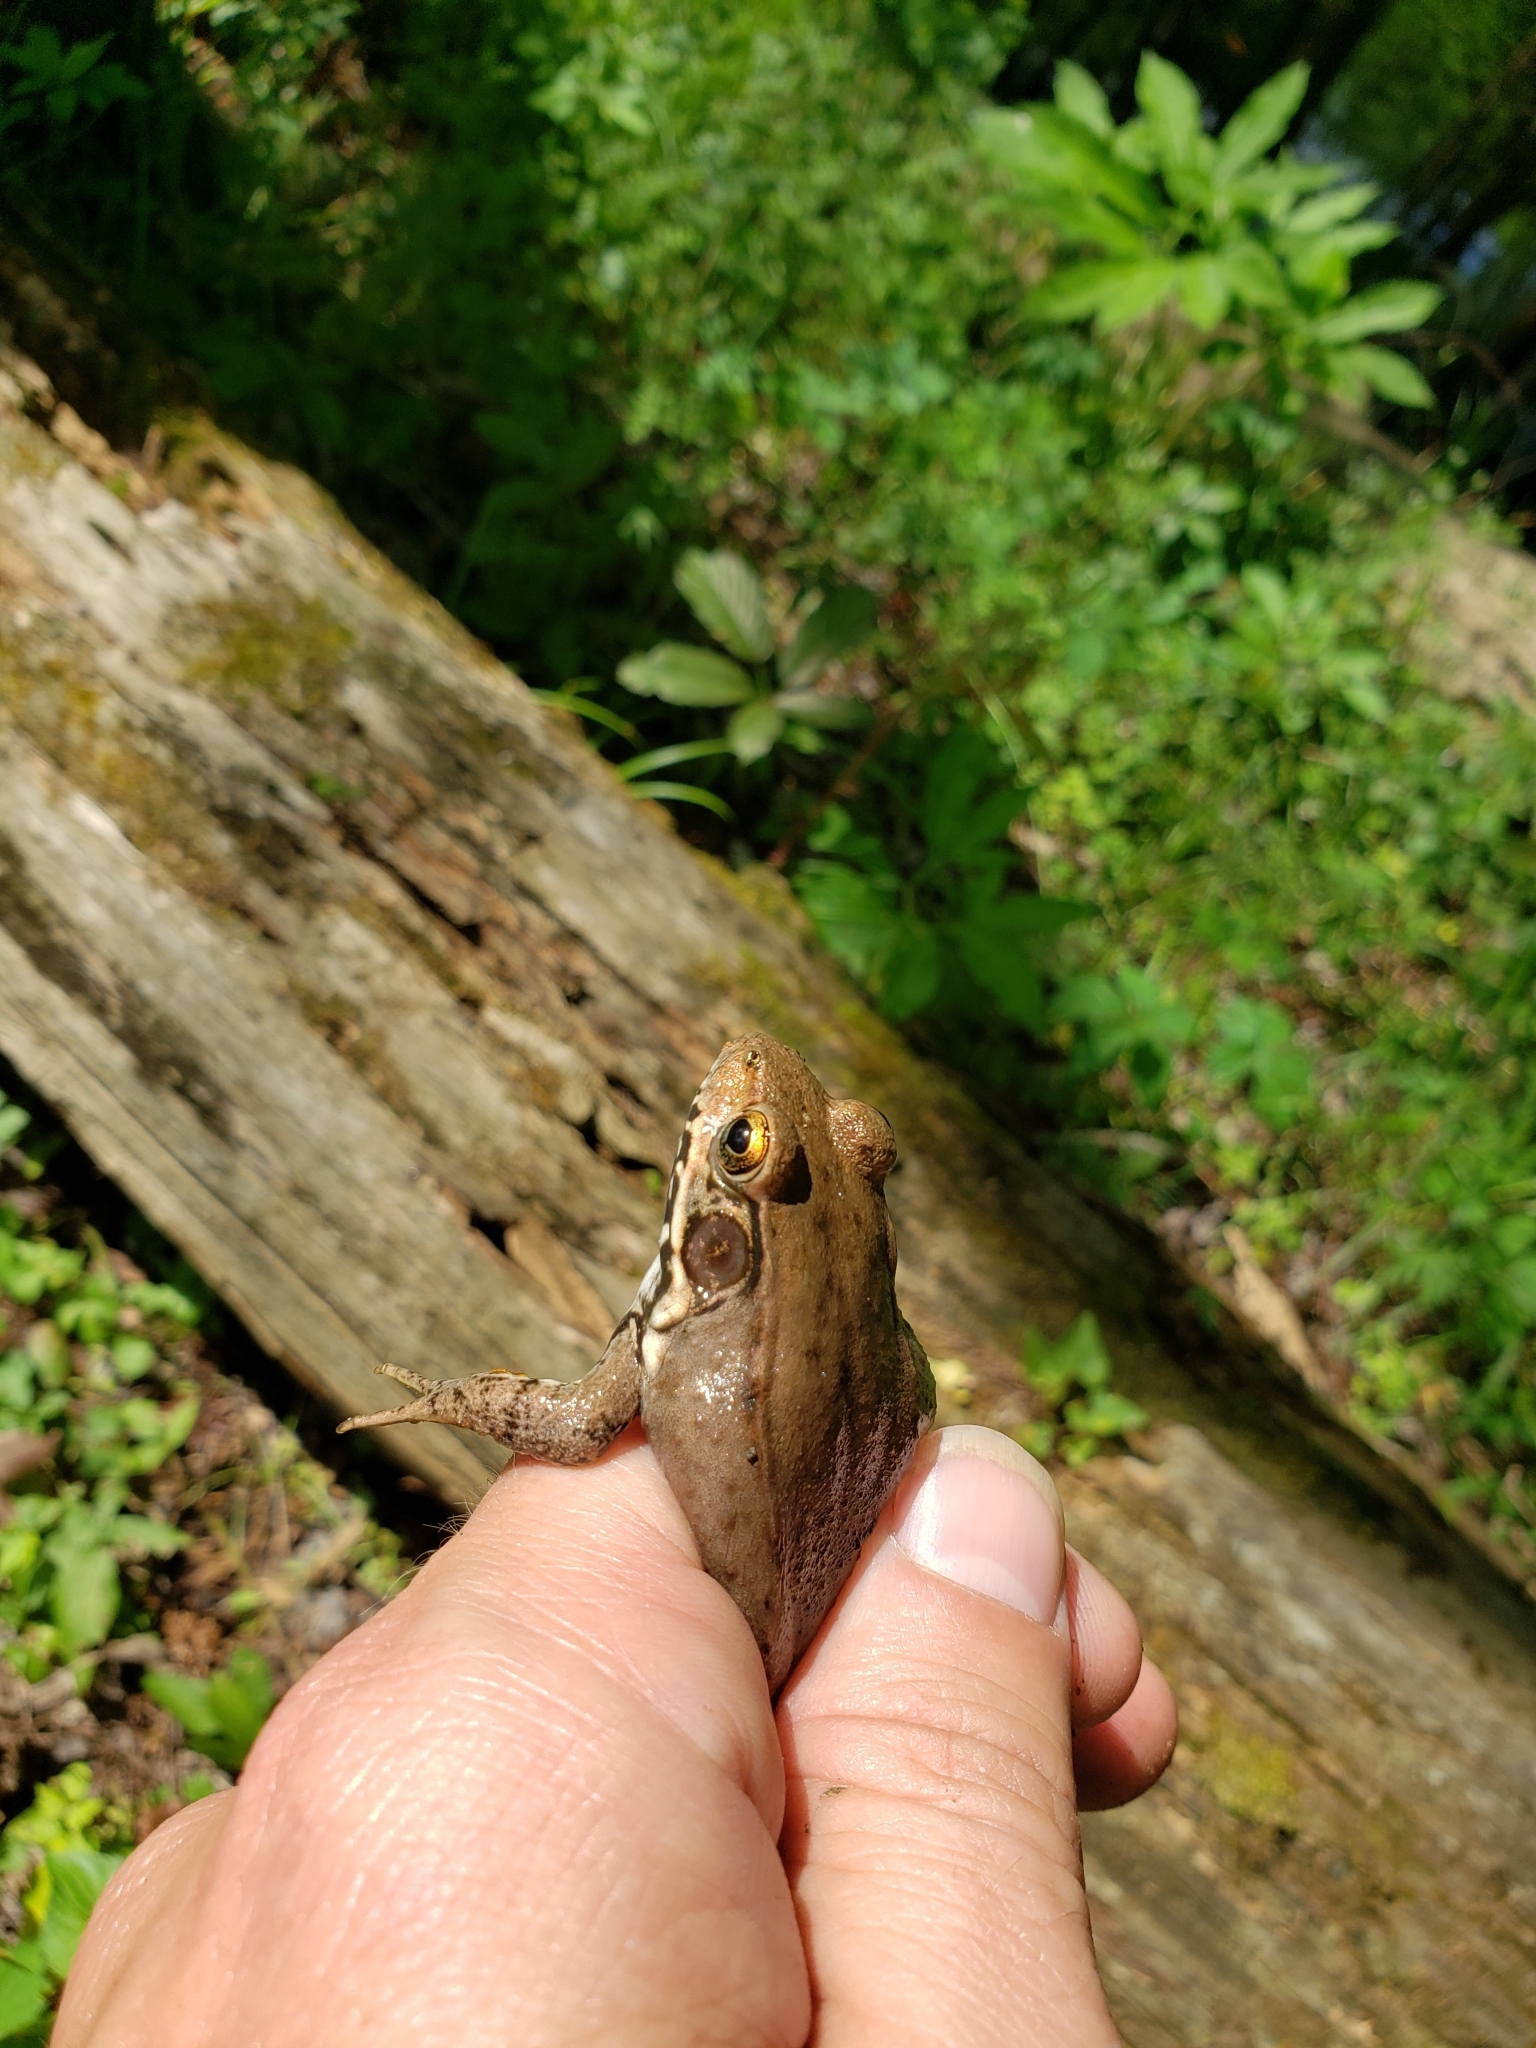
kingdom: Animalia
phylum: Chordata
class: Amphibia
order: Anura
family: Ranidae
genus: Lithobates
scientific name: Lithobates clamitans
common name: Green frog
